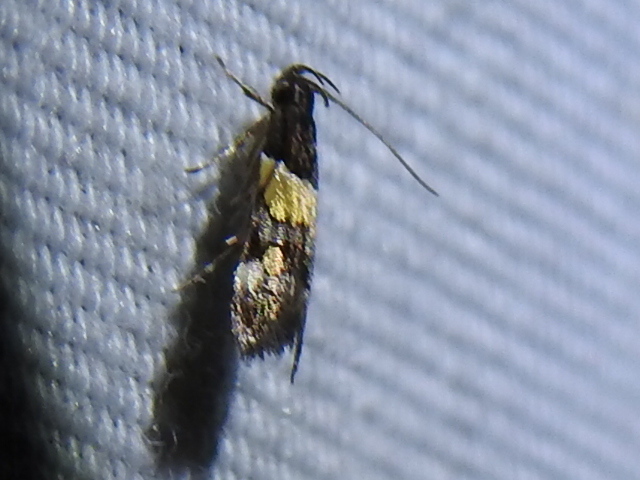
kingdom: Animalia
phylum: Arthropoda
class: Insecta
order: Lepidoptera
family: Momphidae
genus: Triclonella
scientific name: Triclonella determinatella
